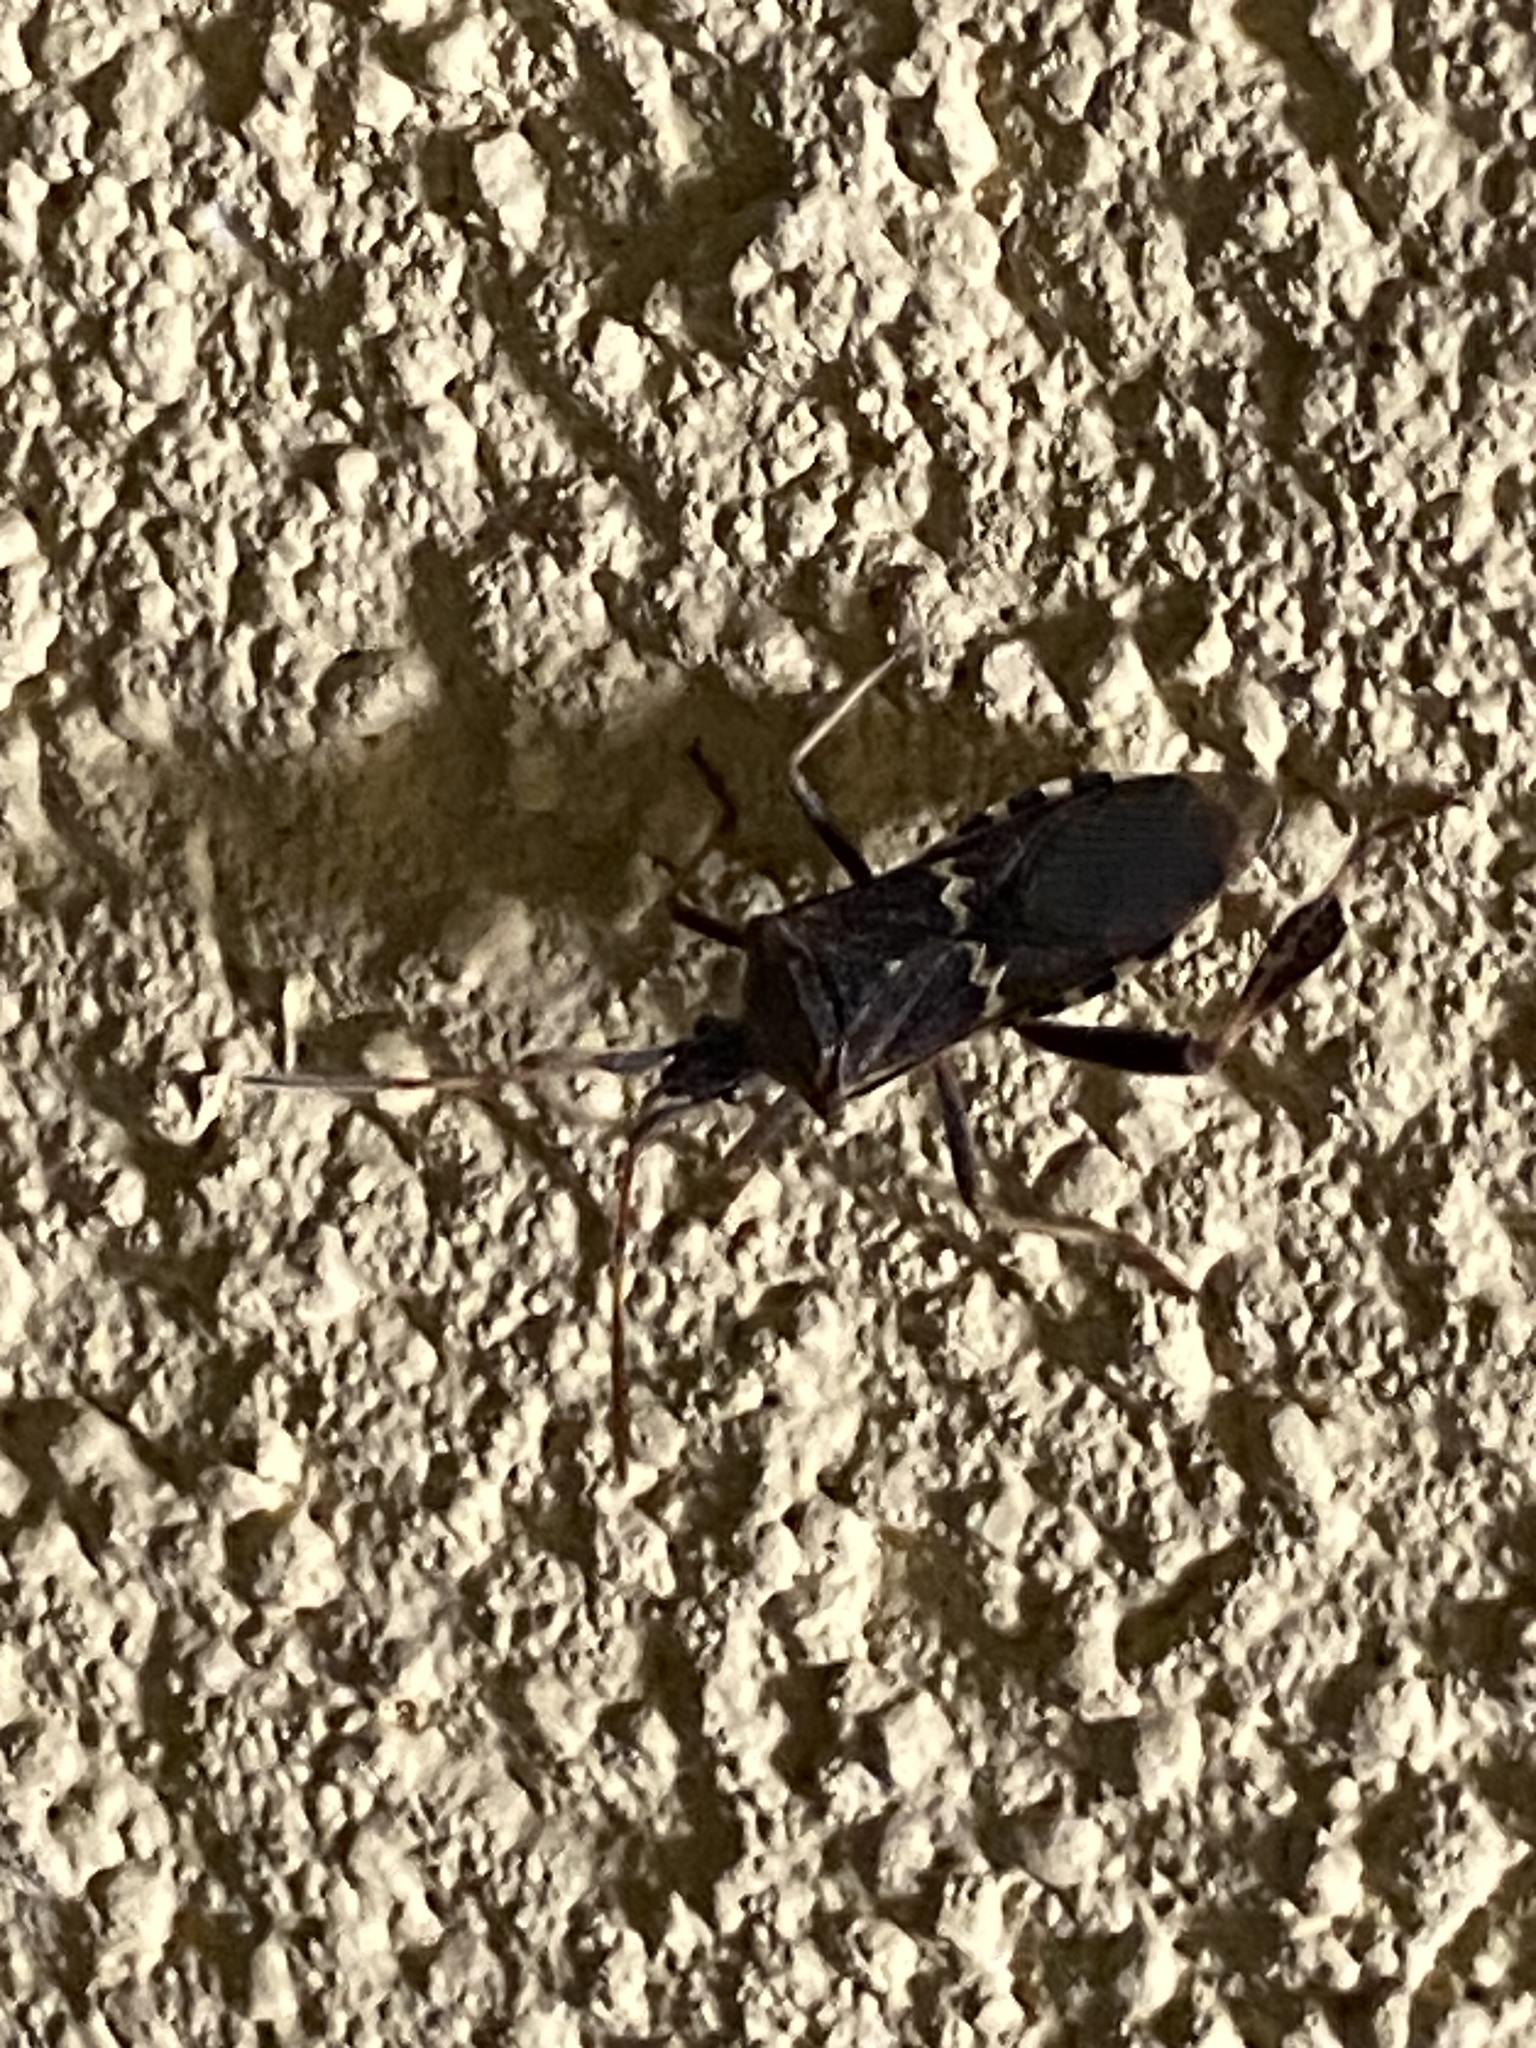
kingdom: Animalia
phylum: Arthropoda
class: Insecta
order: Hemiptera
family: Coreidae
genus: Leptoglossus
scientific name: Leptoglossus clypealis
